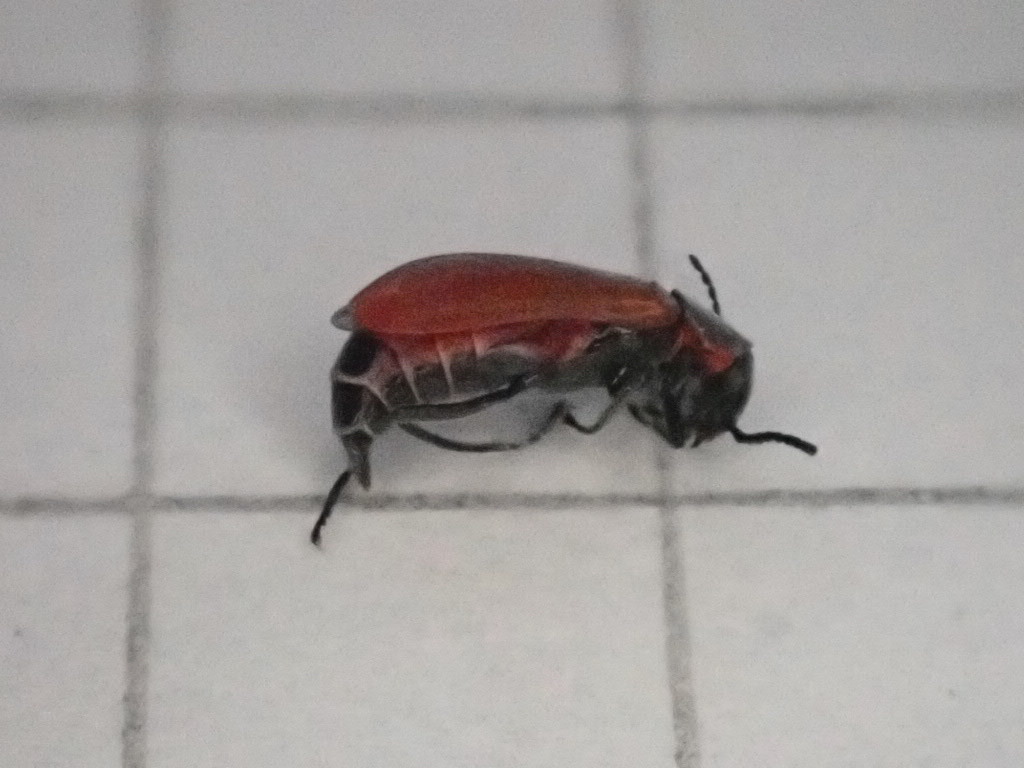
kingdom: Animalia
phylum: Arthropoda
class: Insecta
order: Coleoptera
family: Melyridae
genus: Anthocomus
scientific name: Anthocomus rufus
